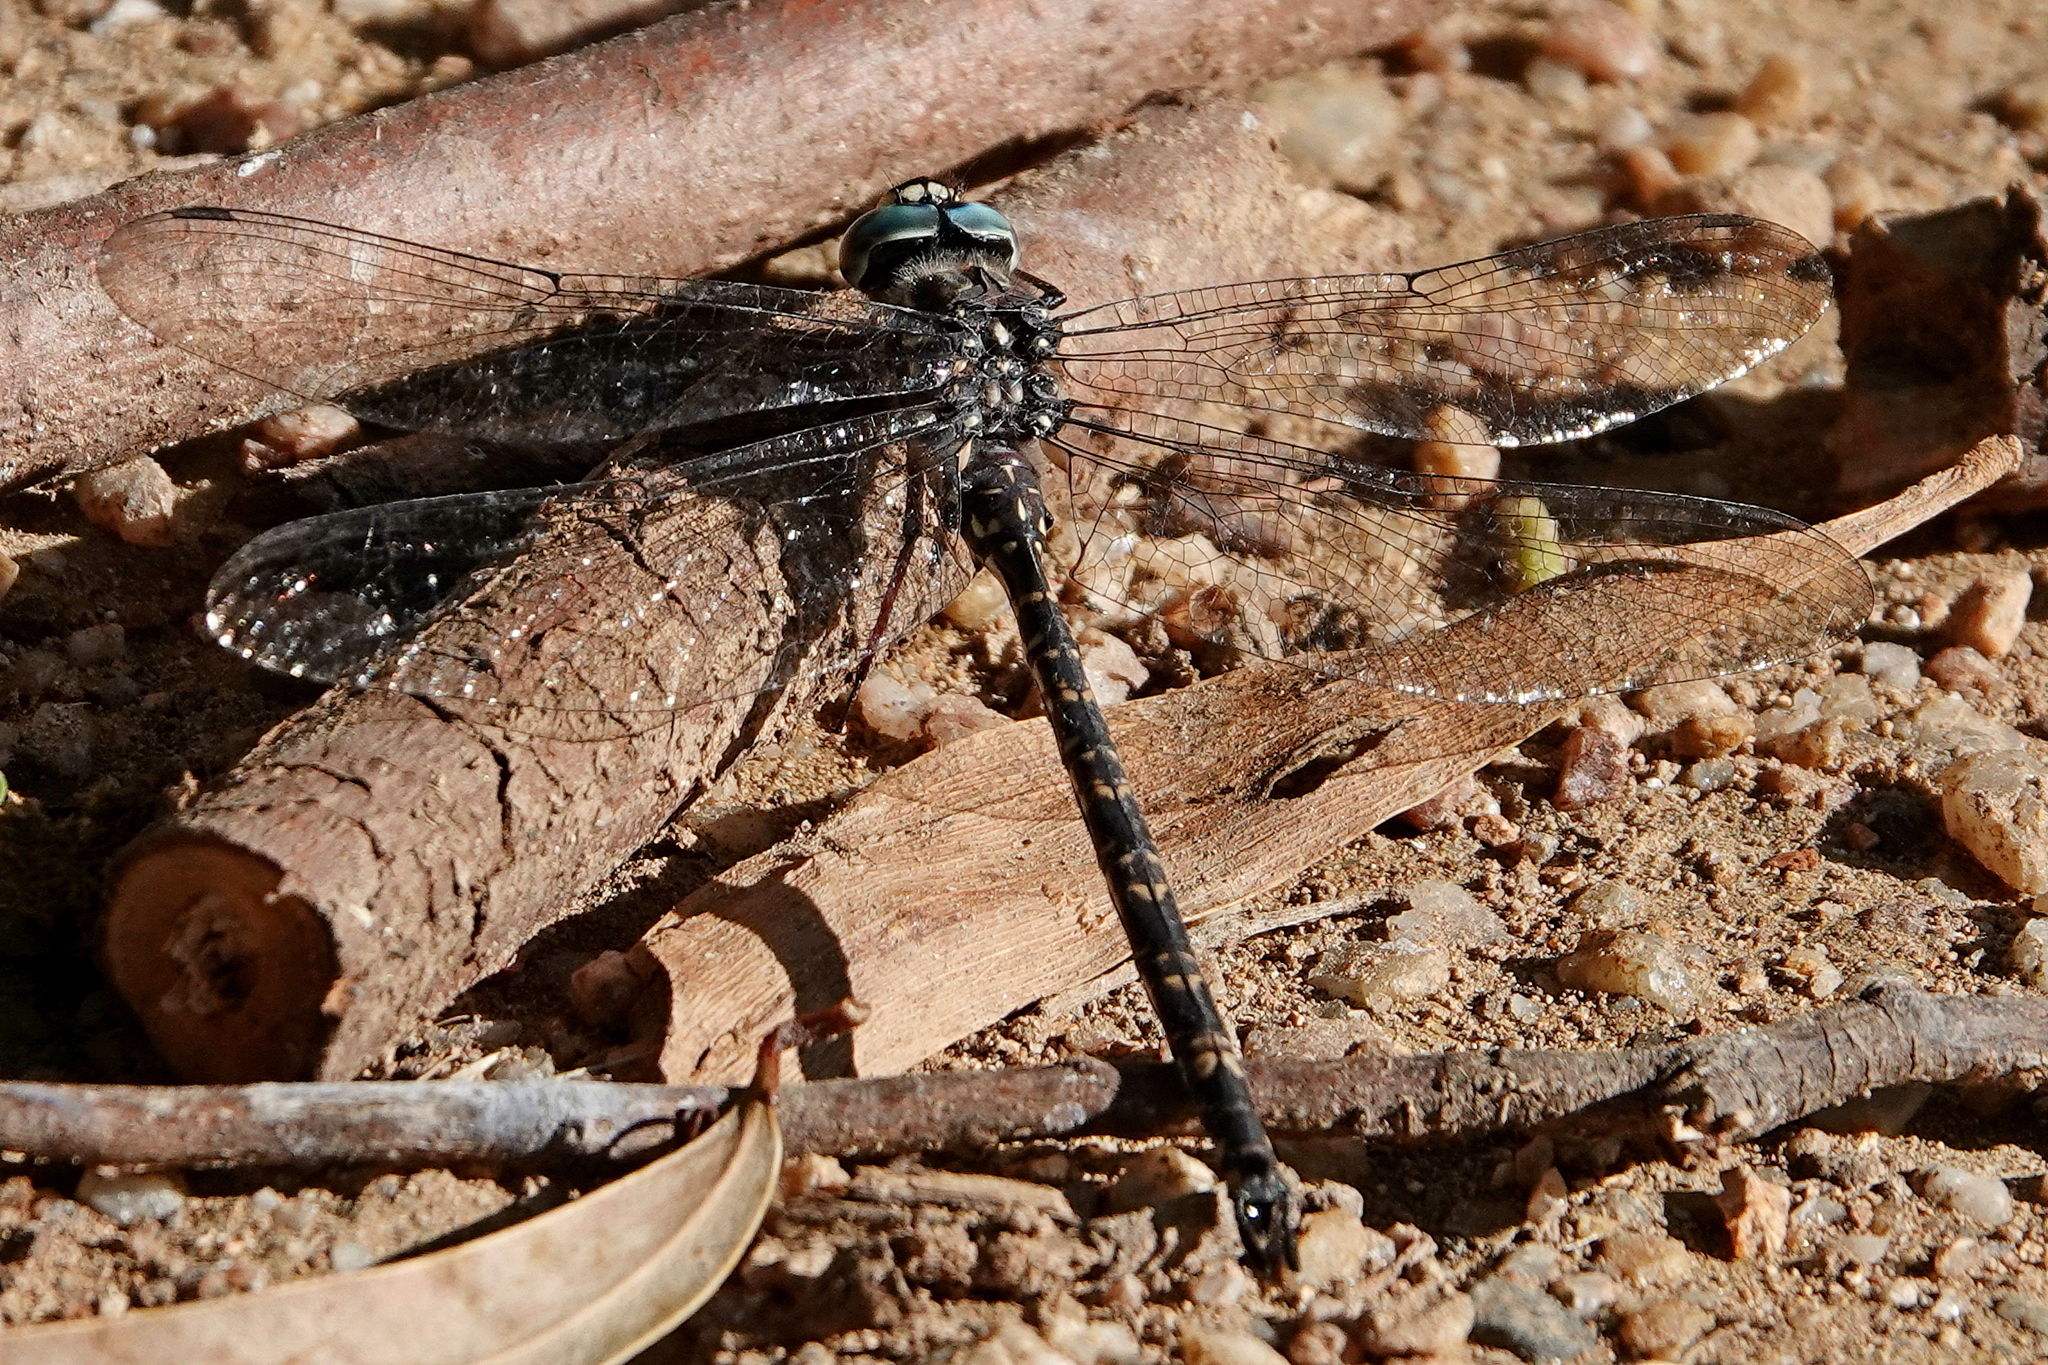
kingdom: Animalia
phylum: Arthropoda
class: Insecta
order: Odonata
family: Aeshnidae
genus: Austroaeschna
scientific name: Austroaeschna multipunctata
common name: Multi-spotted darner
